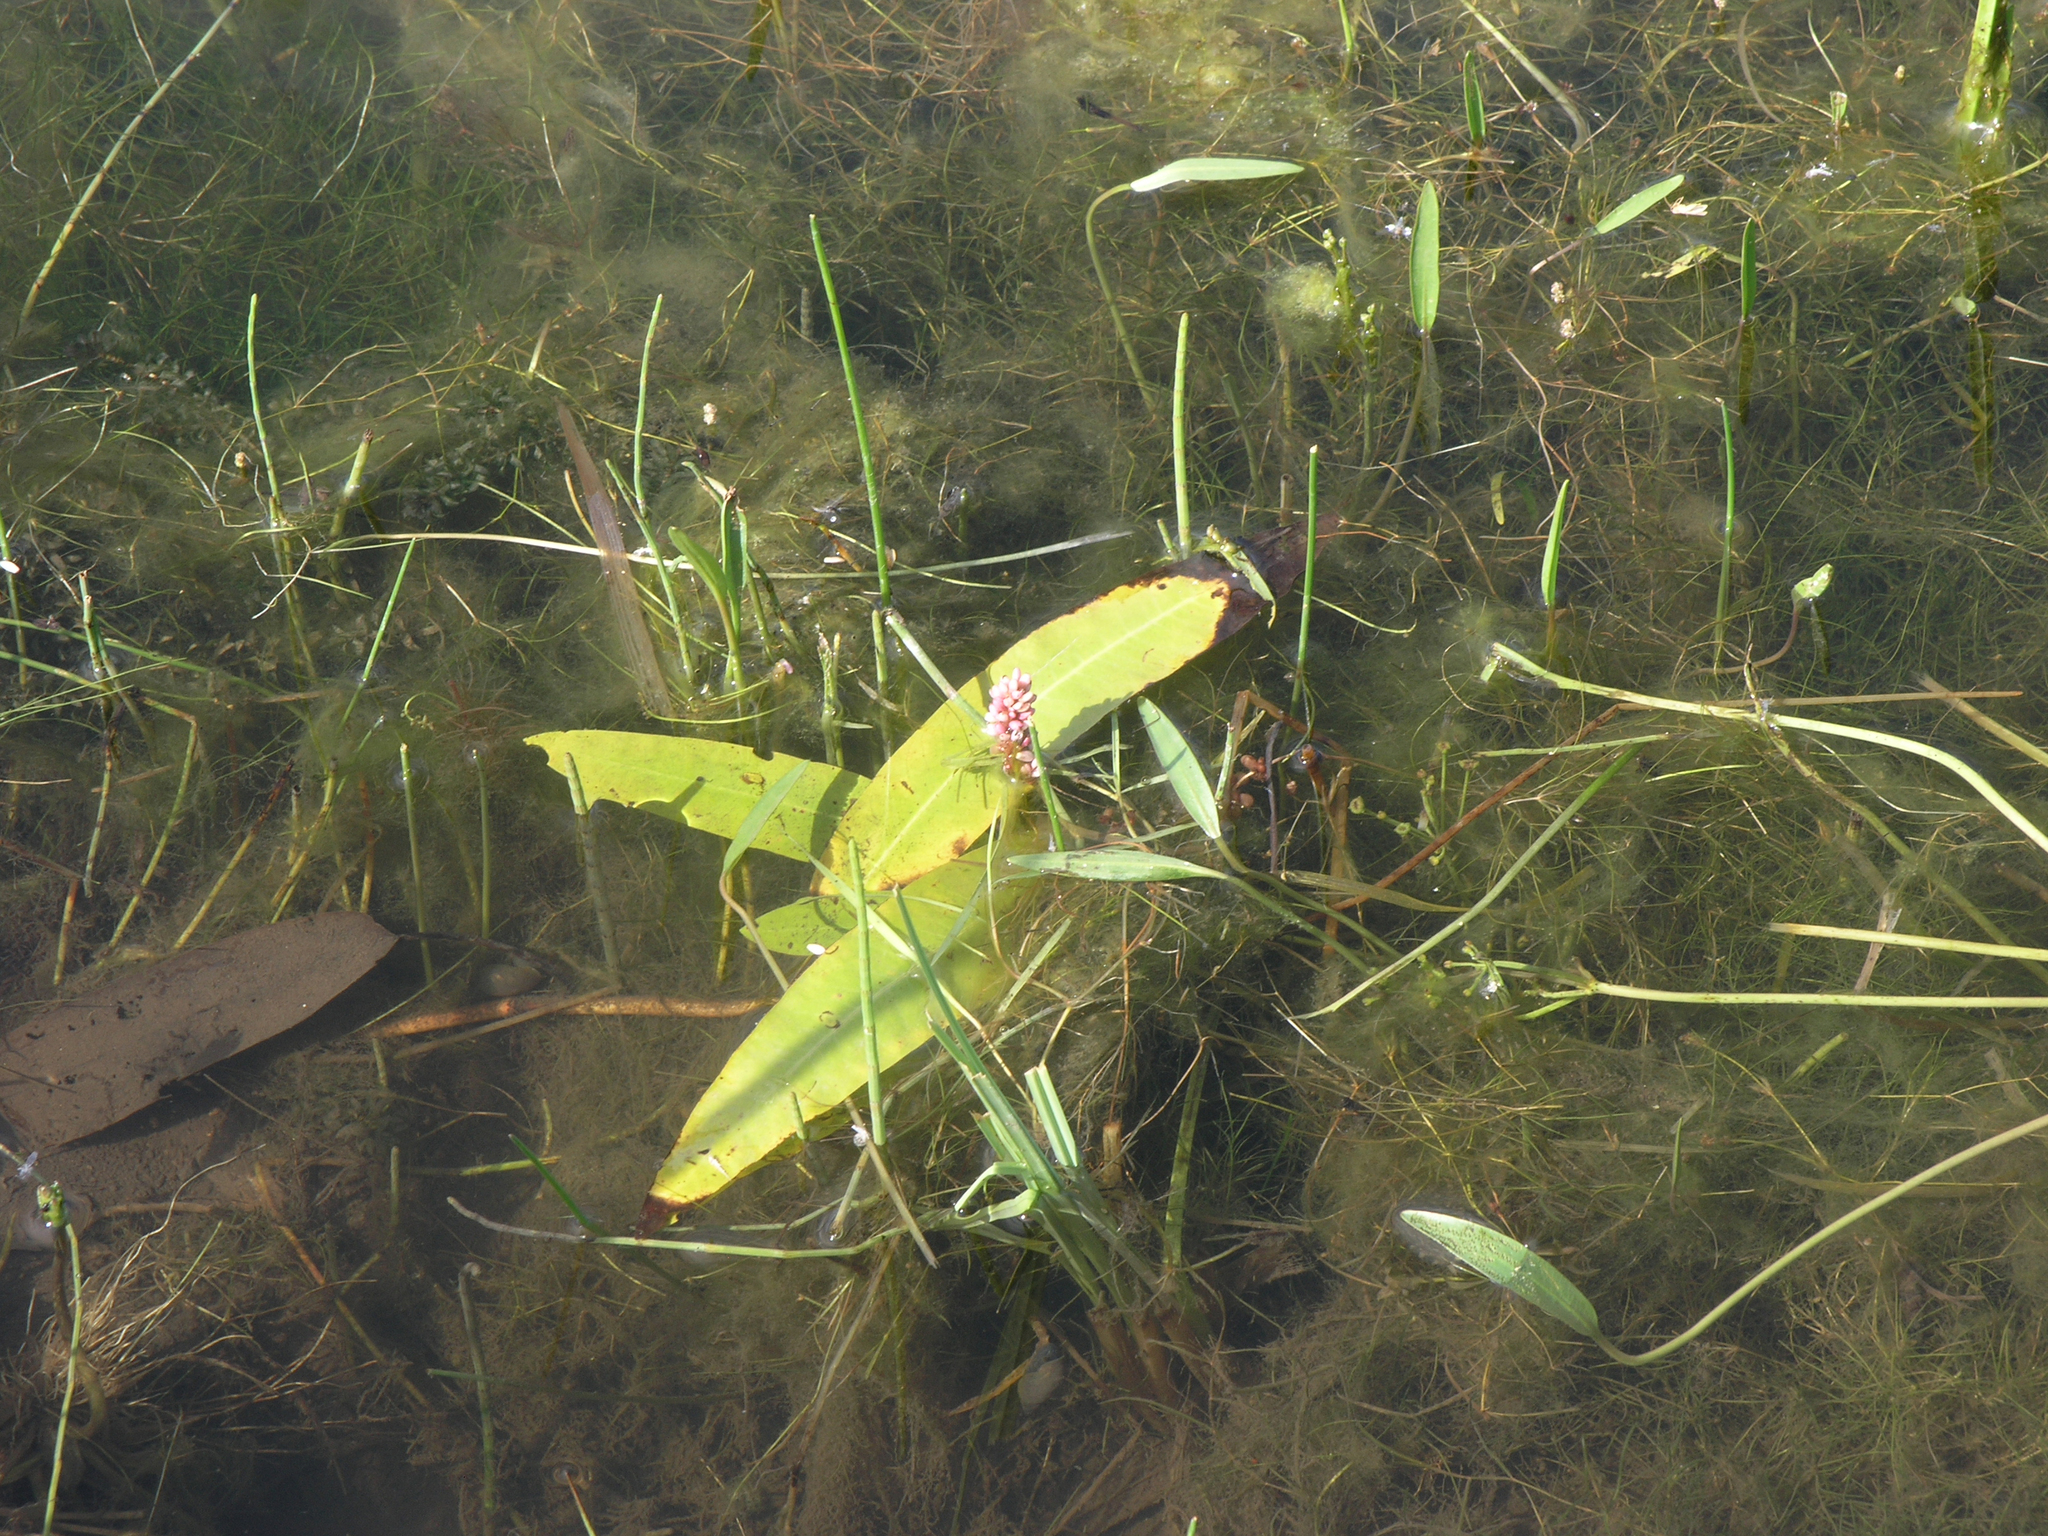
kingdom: Plantae
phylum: Tracheophyta
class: Magnoliopsida
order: Caryophyllales
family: Polygonaceae
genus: Persicaria
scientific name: Persicaria amphibia
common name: Amphibious bistort
